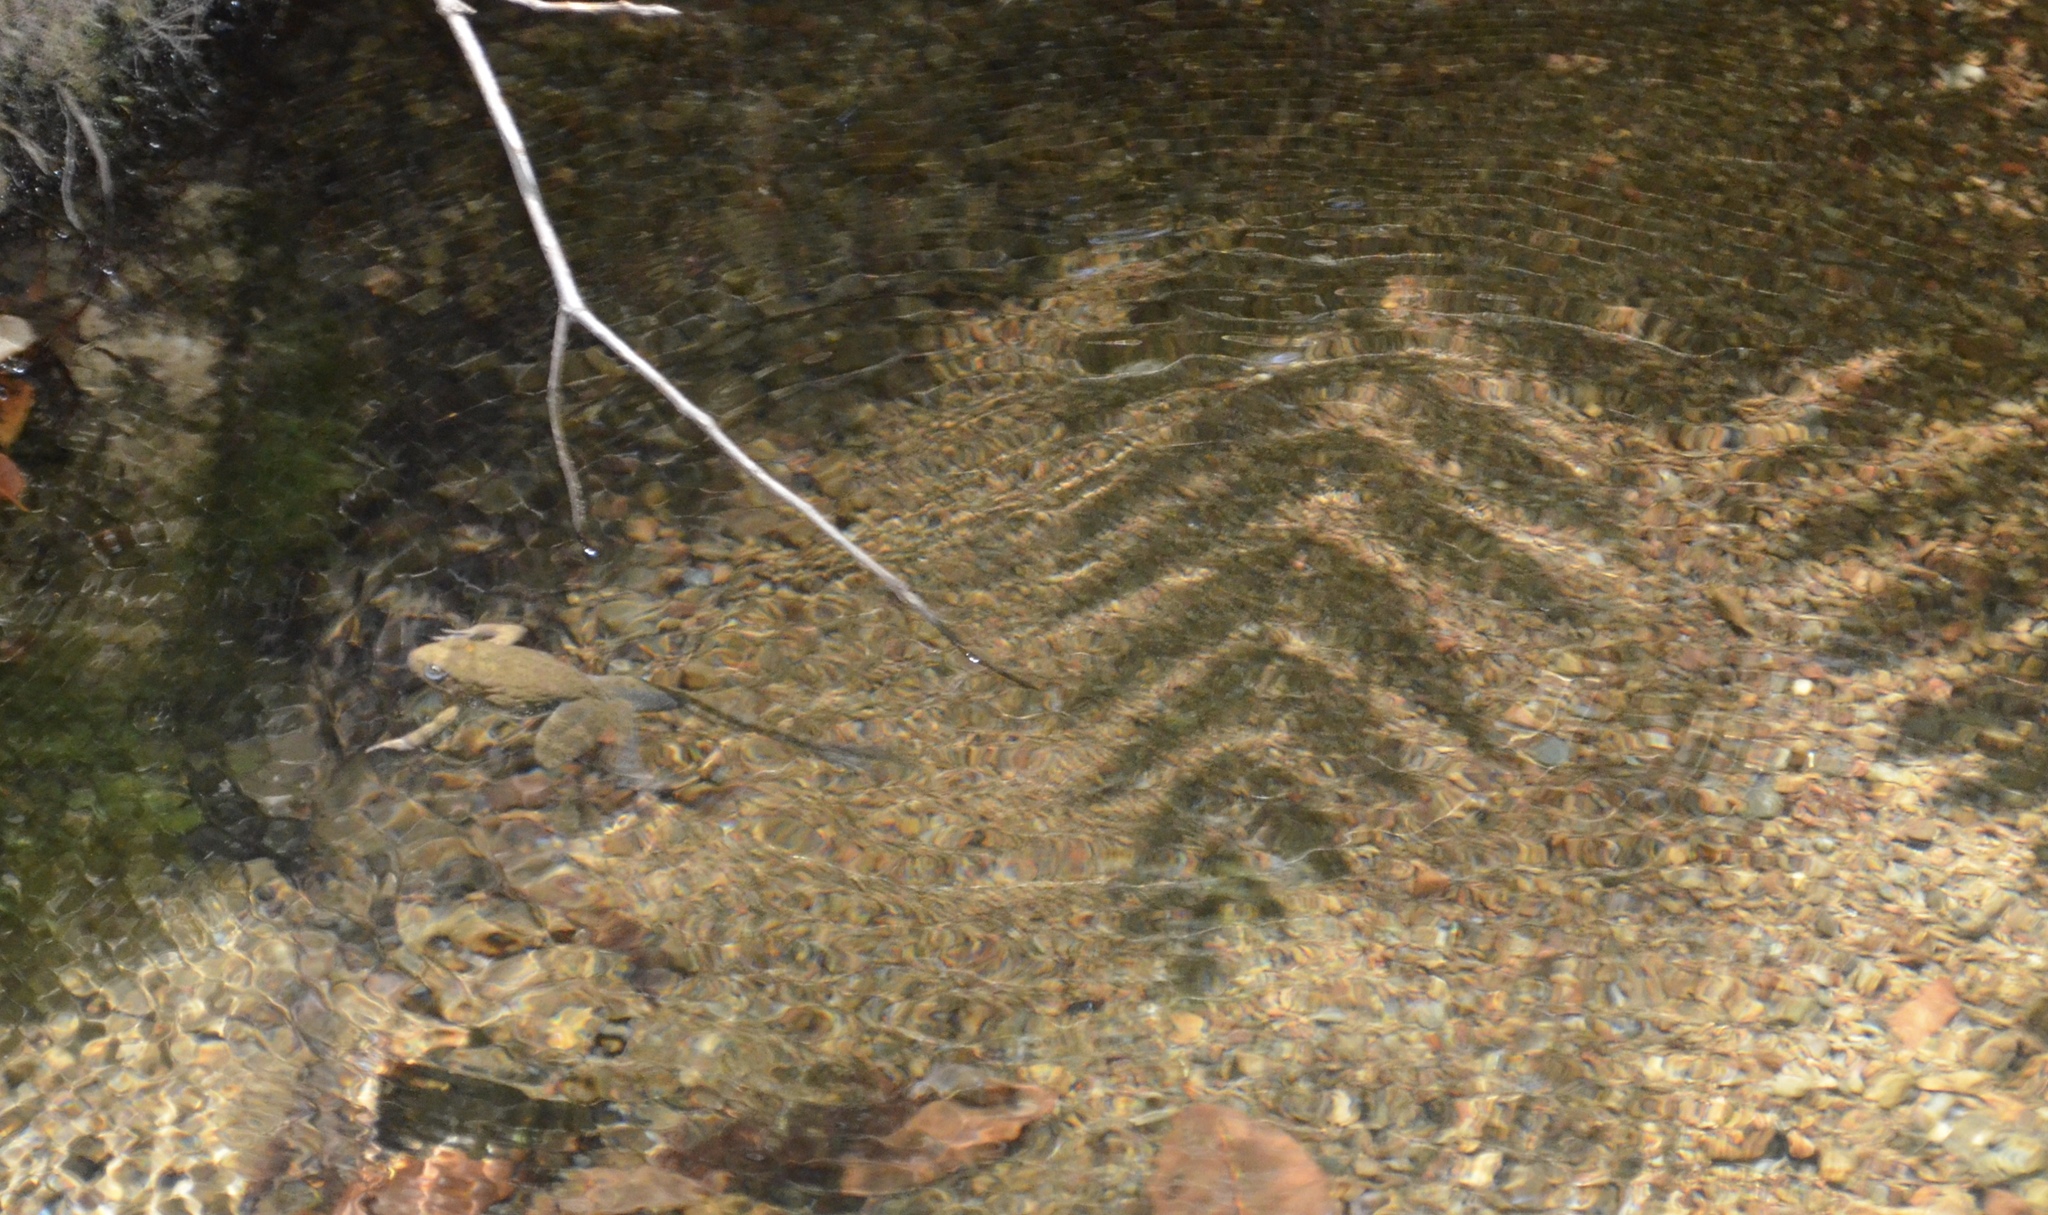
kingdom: Animalia
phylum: Chordata
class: Amphibia
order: Anura
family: Ranidae
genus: Rana
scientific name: Rana boylii
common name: Foothill yellow-legged frog
